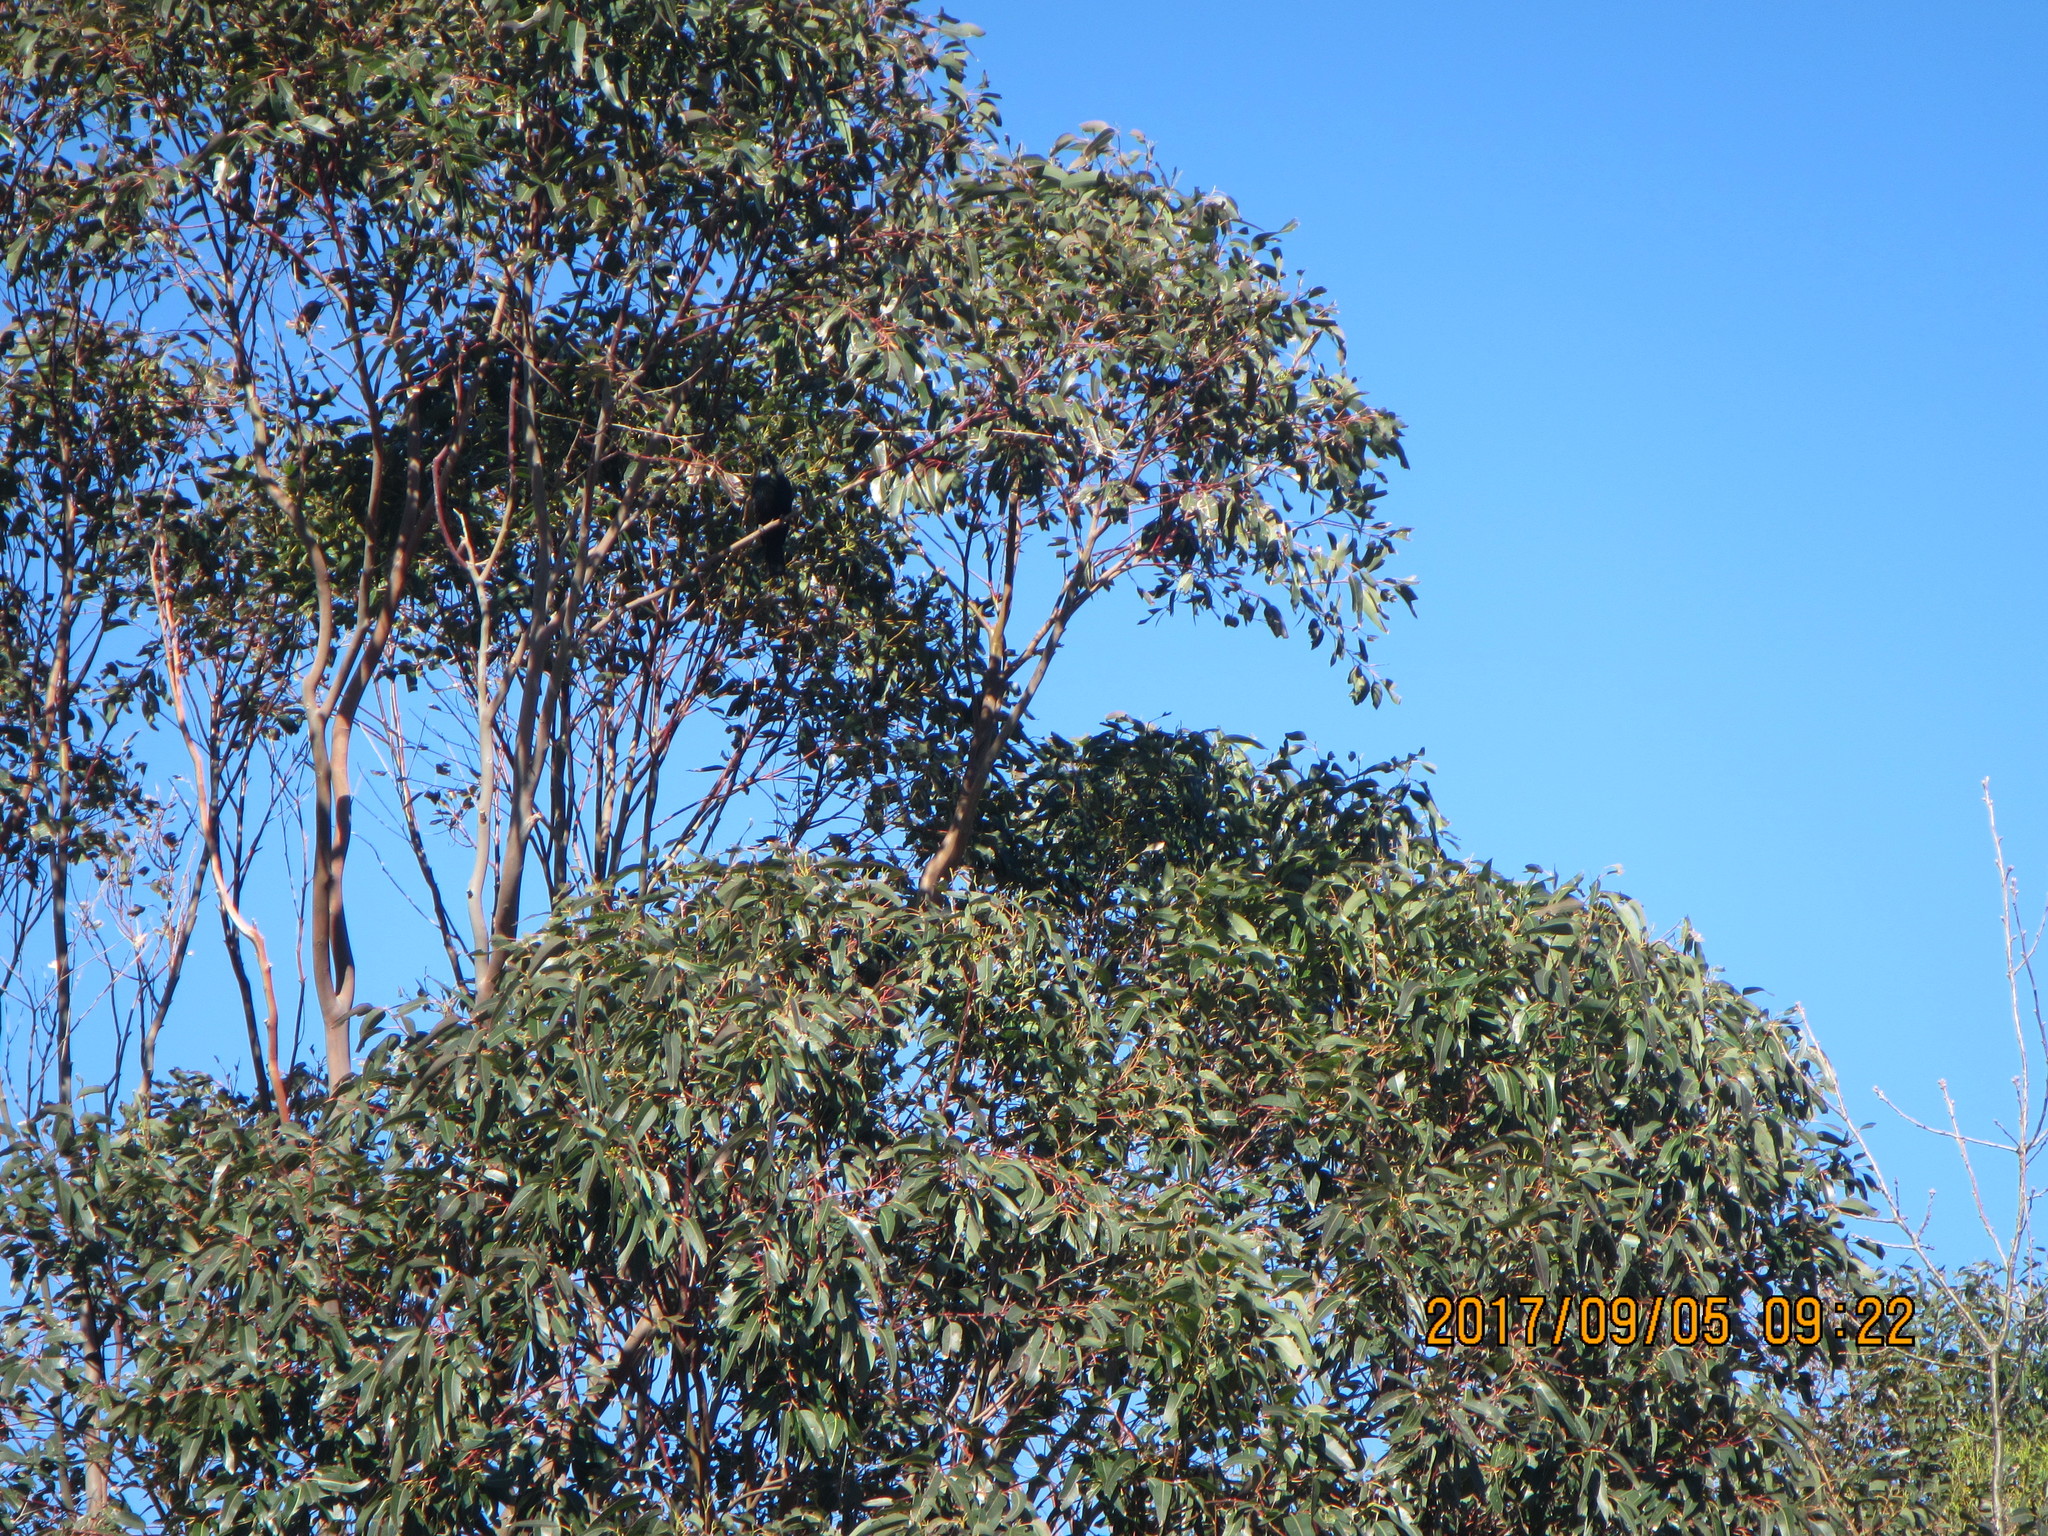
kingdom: Animalia
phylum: Chordata
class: Aves
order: Passeriformes
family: Meliphagidae
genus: Prosthemadera
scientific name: Prosthemadera novaeseelandiae
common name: Tui
